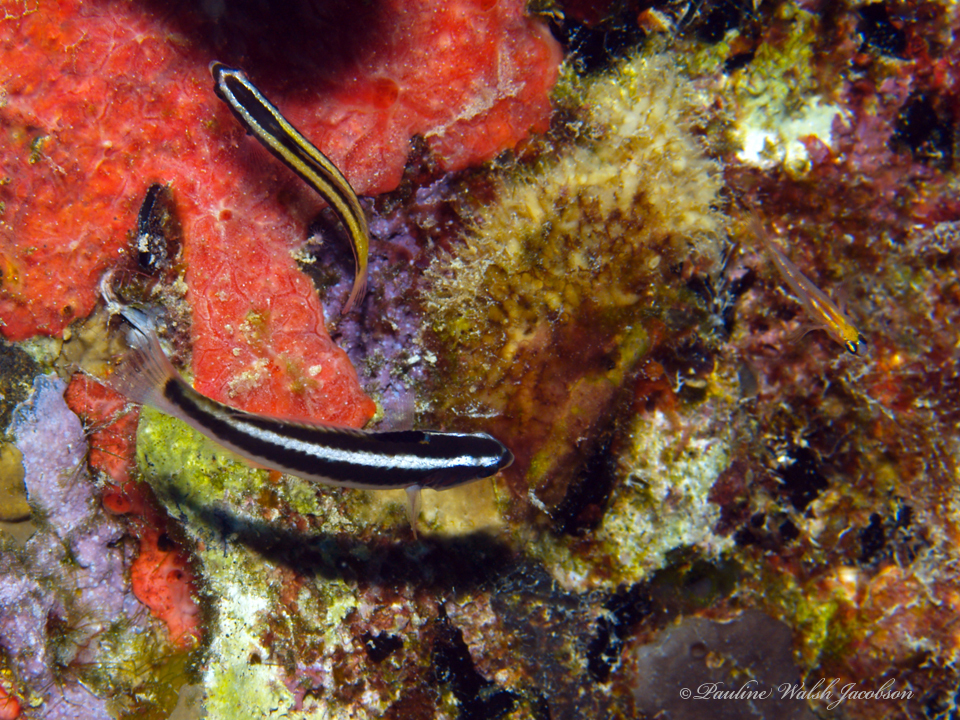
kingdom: Animalia
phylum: Chordata
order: Perciformes
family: Labridae
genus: Thalassoma
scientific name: Thalassoma bifasciatum
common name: Bluehead wrasse
